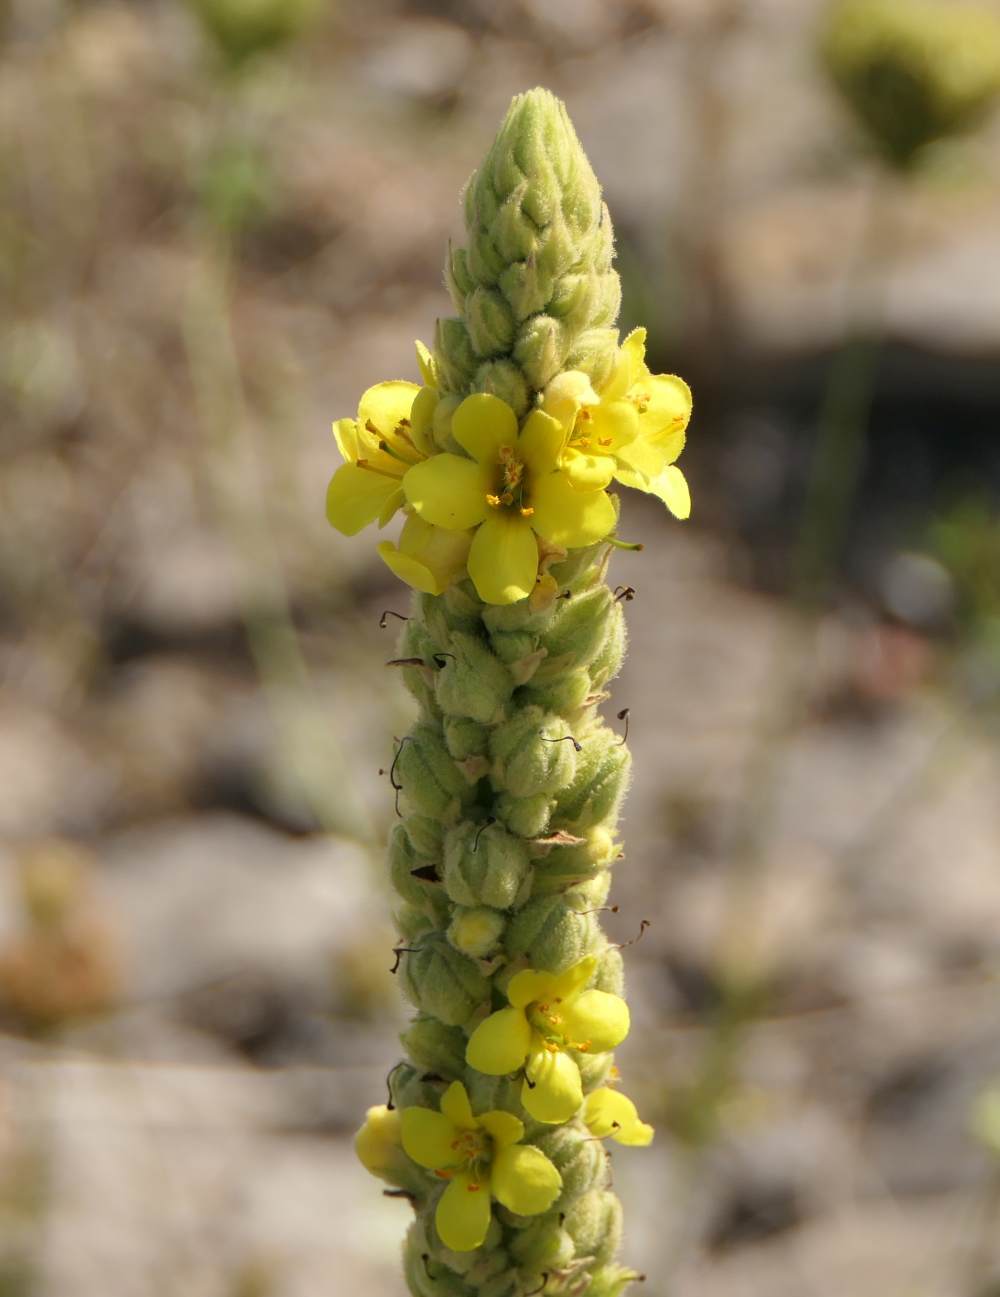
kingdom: Plantae
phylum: Tracheophyta
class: Magnoliopsida
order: Lamiales
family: Scrophulariaceae
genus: Verbascum
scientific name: Verbascum thapsus
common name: Common mullein
